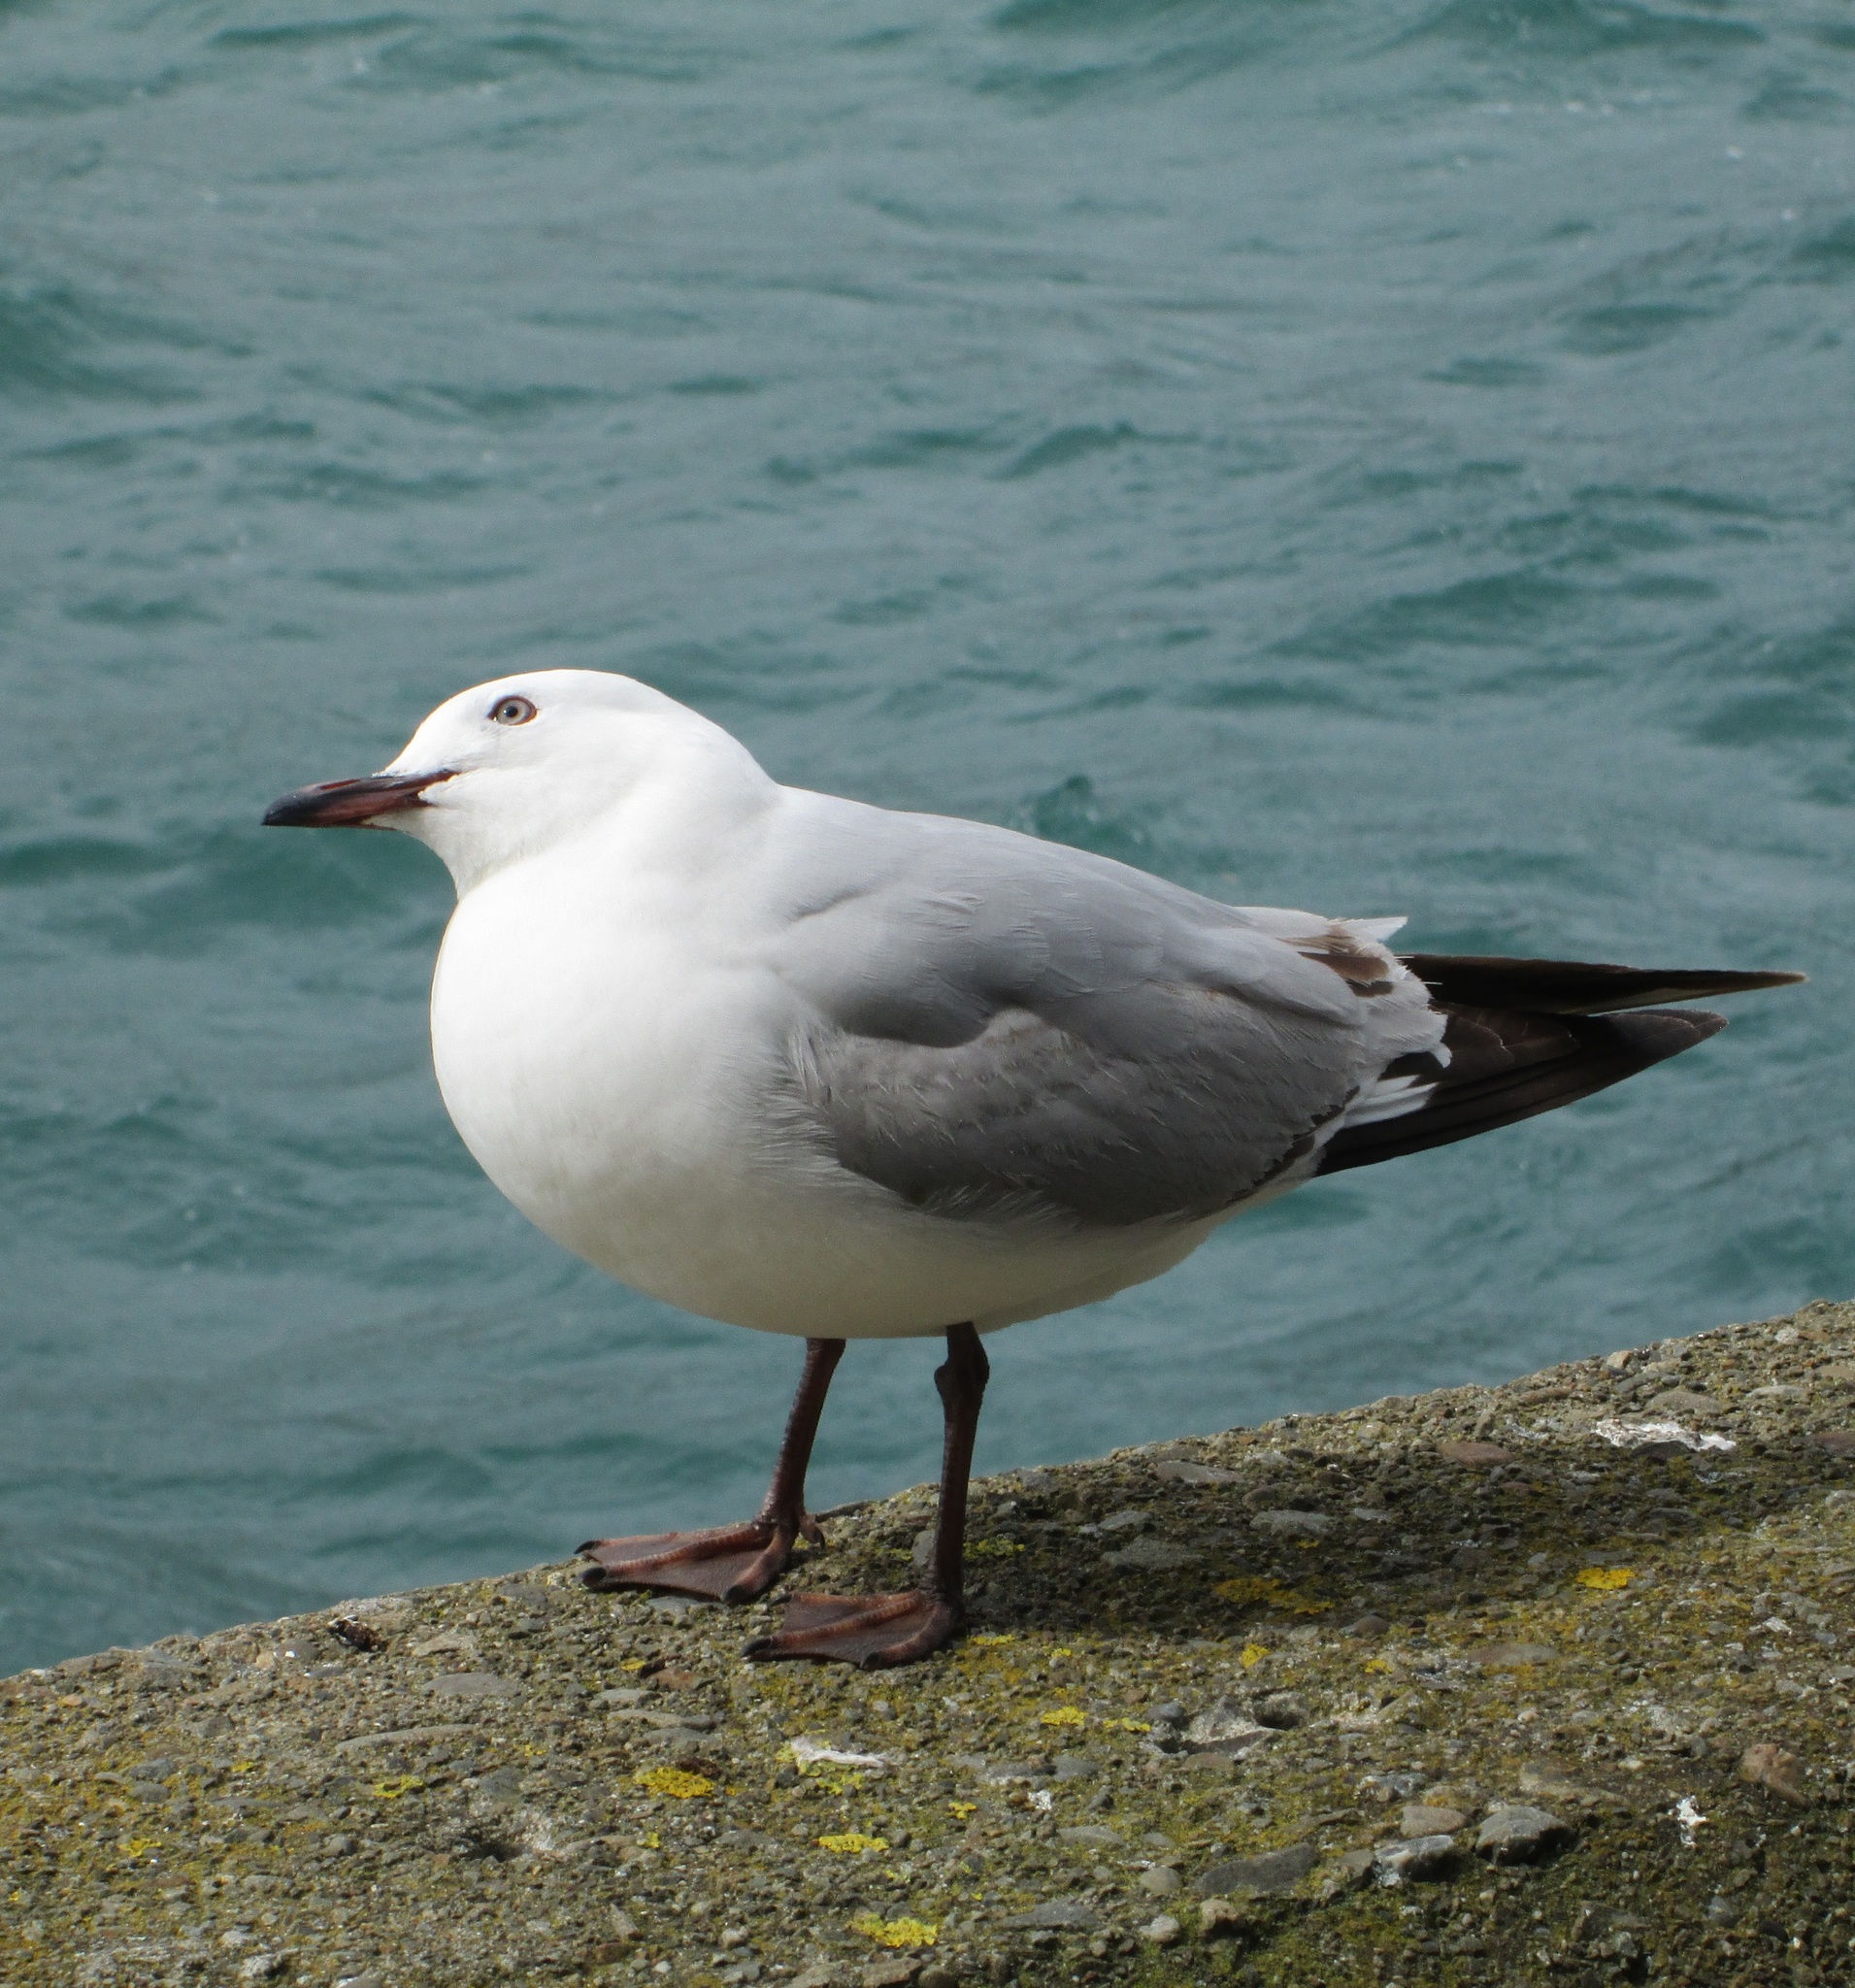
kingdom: Animalia
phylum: Chordata
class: Aves
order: Charadriiformes
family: Laridae
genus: Chroicocephalus
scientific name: Chroicocephalus novaehollandiae
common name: Silver gull
